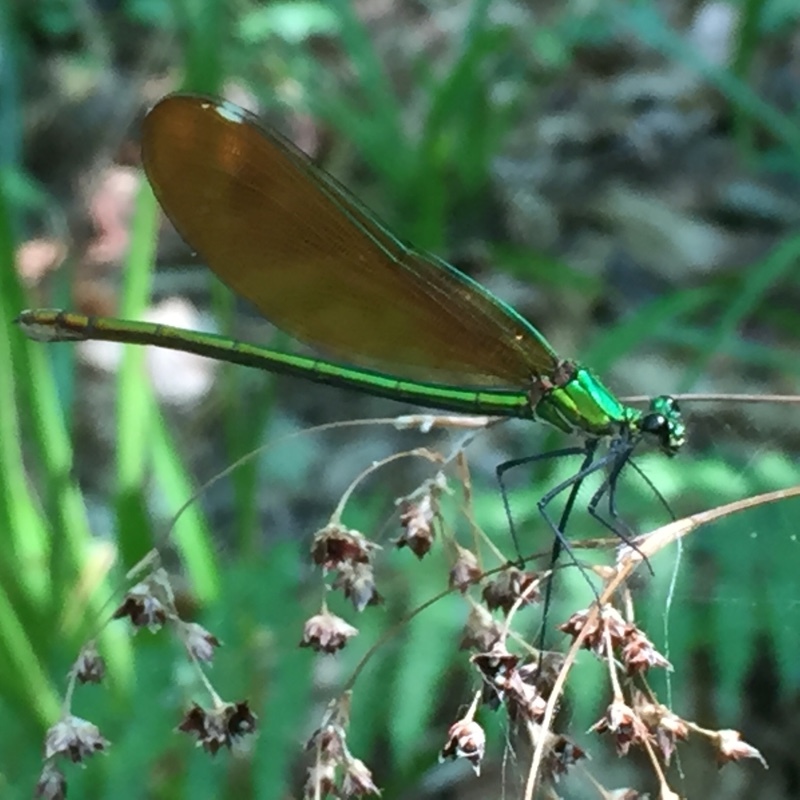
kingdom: Animalia
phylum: Arthropoda
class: Insecta
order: Odonata
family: Calopterygidae
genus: Calopteryx
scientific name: Calopteryx virgo
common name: Beautiful demoiselle
